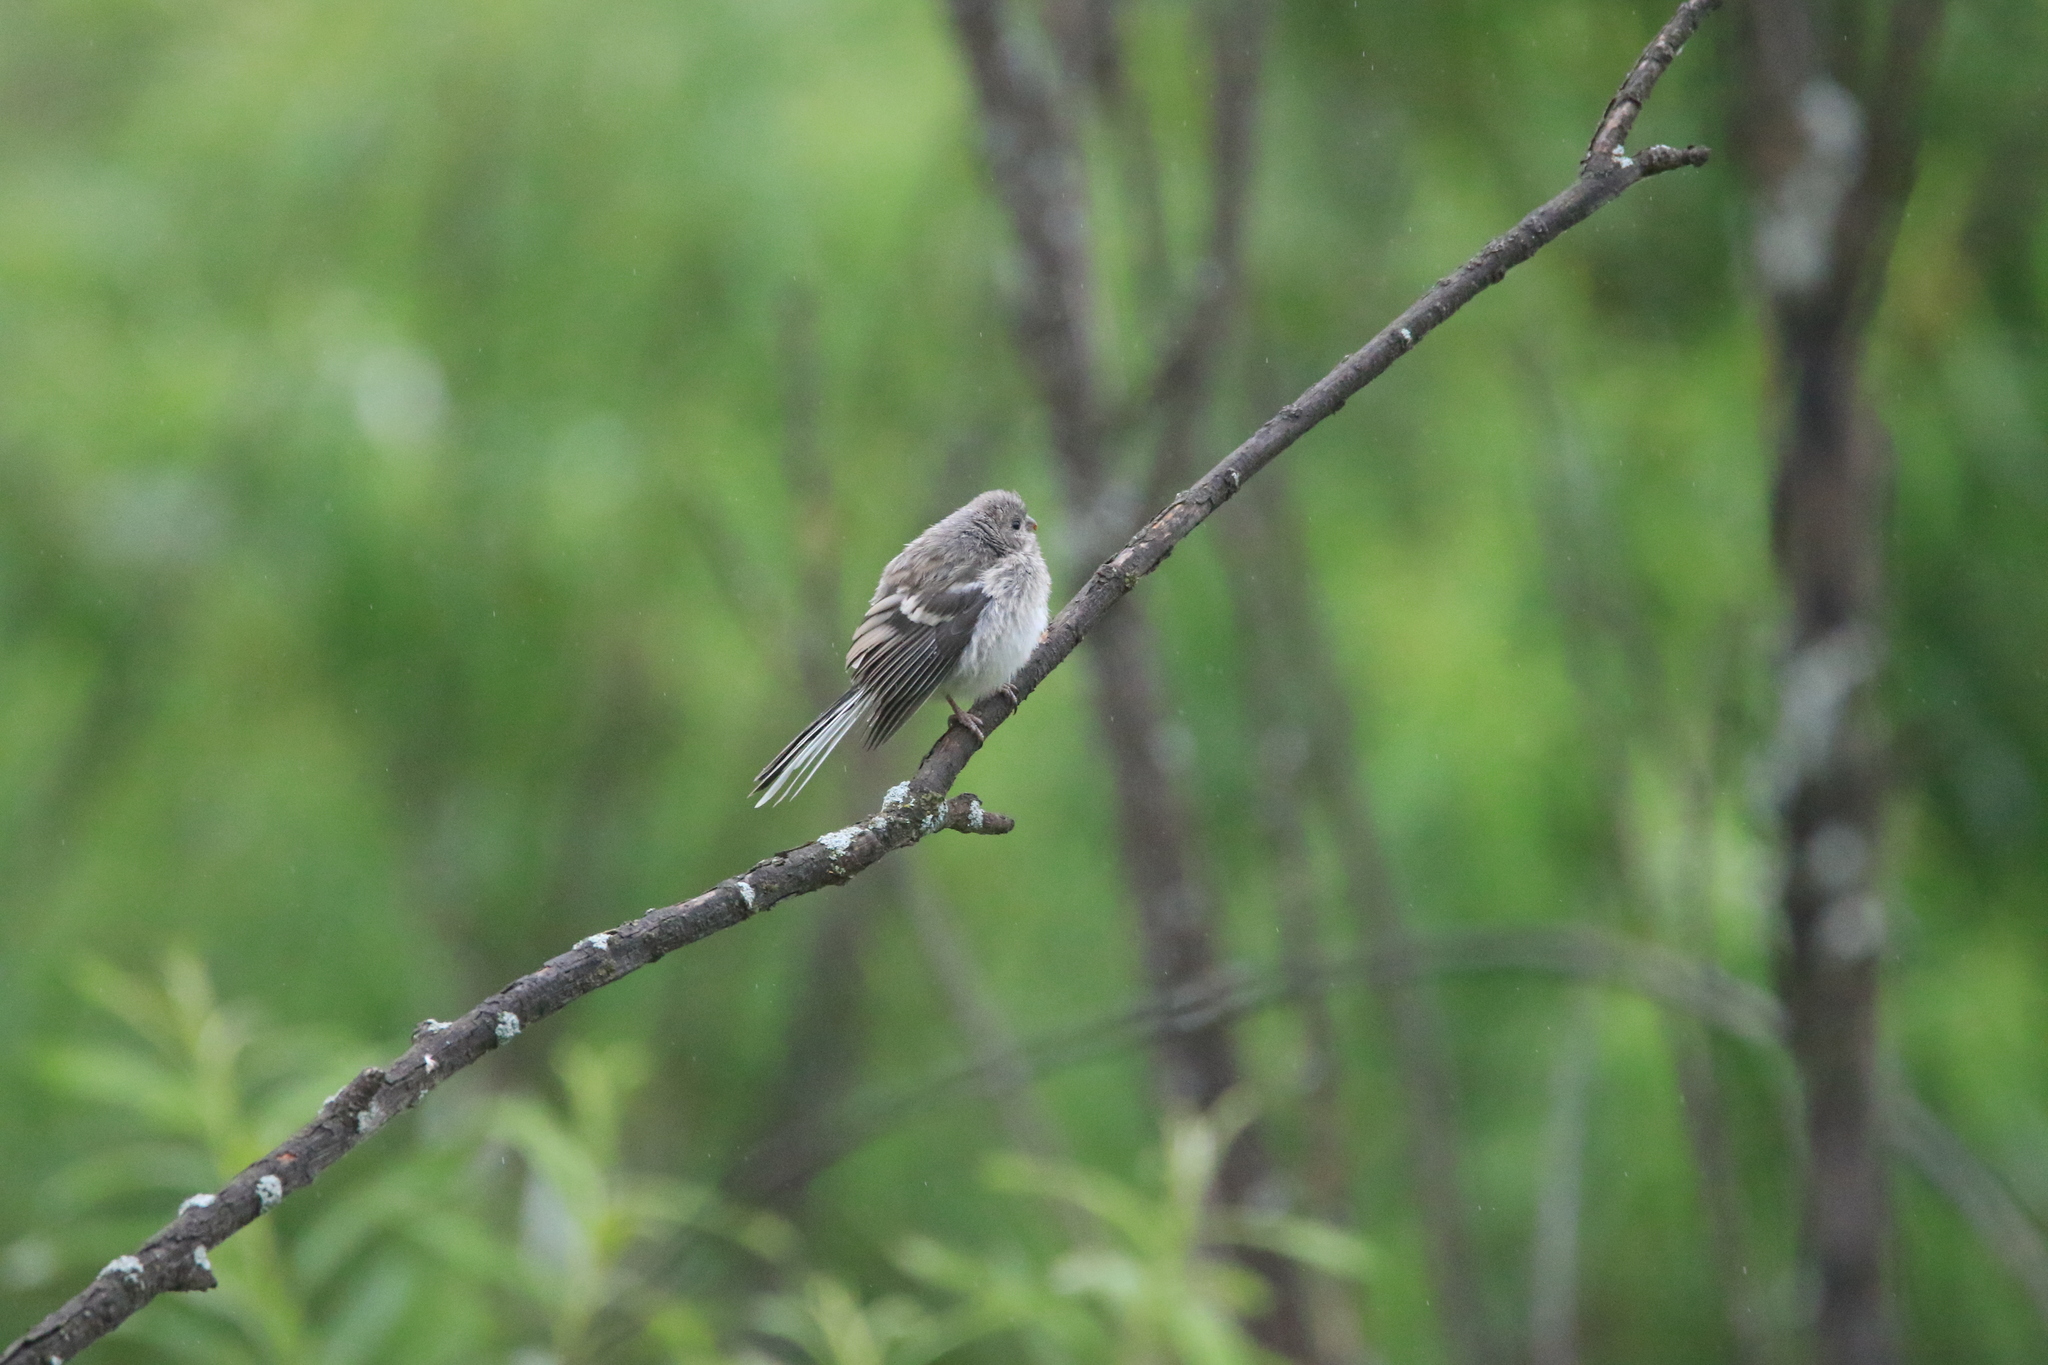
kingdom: Animalia
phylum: Chordata
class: Aves
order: Passeriformes
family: Fringillidae
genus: Carpodacus
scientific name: Carpodacus sibiricus
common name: Long-tailed rosefinch
